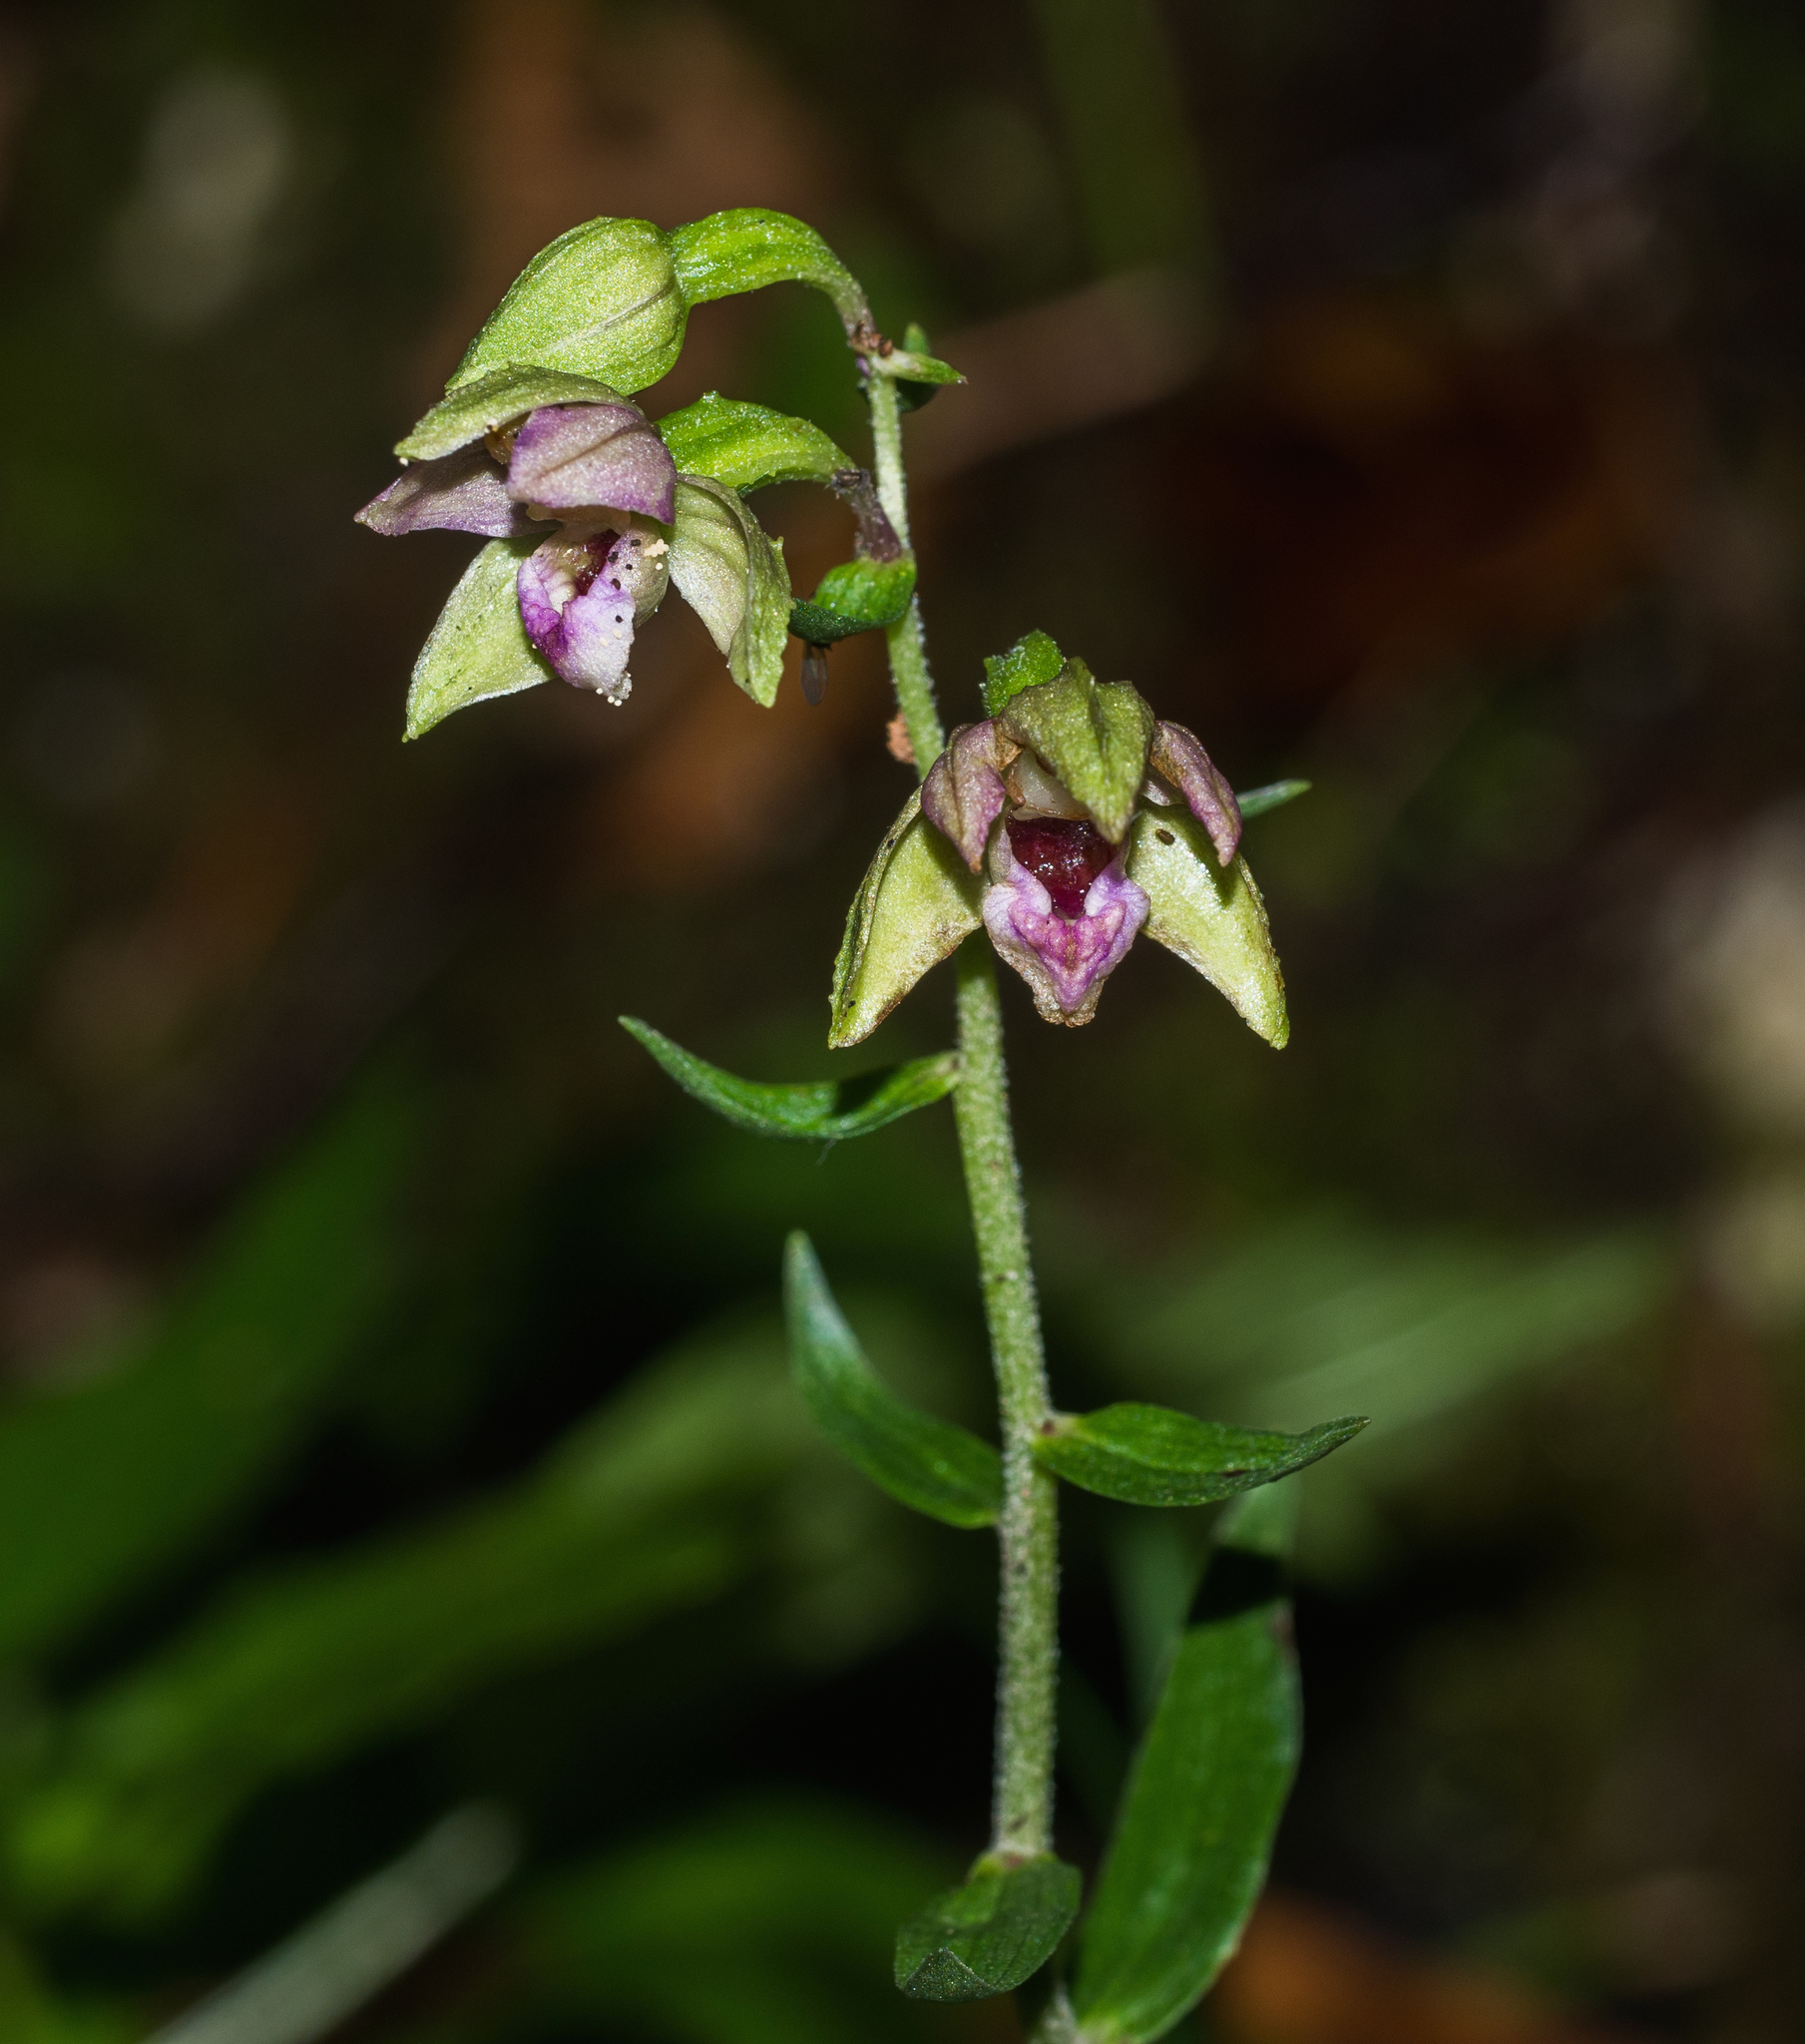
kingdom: Plantae
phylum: Tracheophyta
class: Liliopsida
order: Asparagales
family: Orchidaceae
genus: Epipactis
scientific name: Epipactis helleborine
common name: Broad-leaved helleborine
